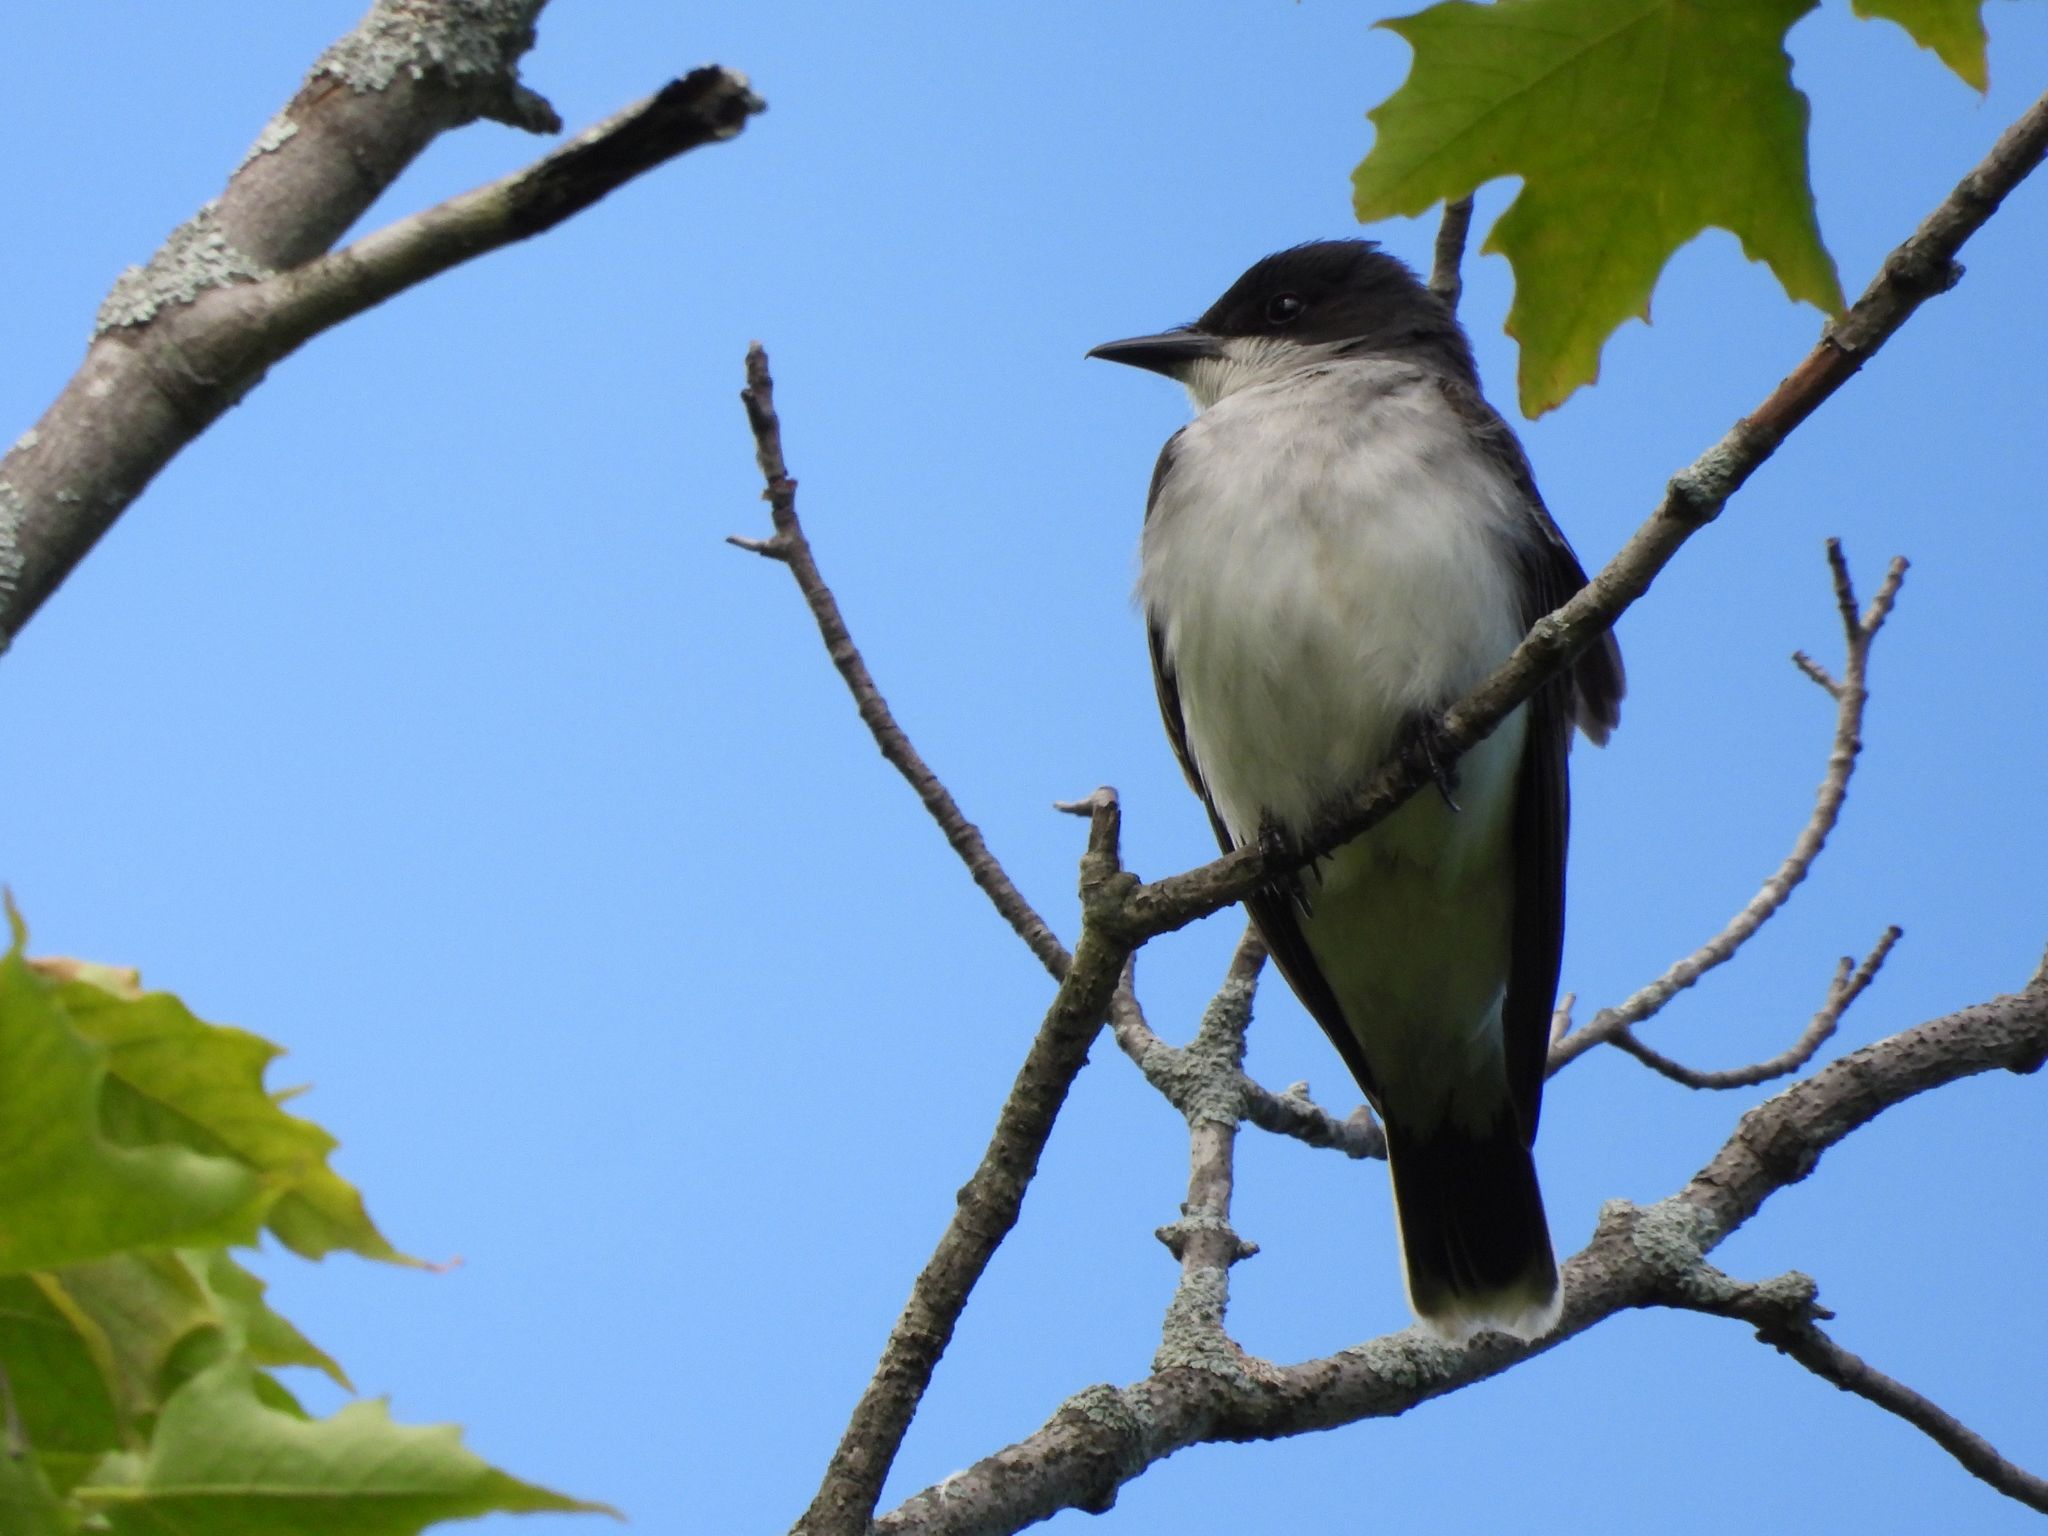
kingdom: Animalia
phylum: Chordata
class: Aves
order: Passeriformes
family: Tyrannidae
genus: Tyrannus
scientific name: Tyrannus tyrannus
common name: Eastern kingbird
